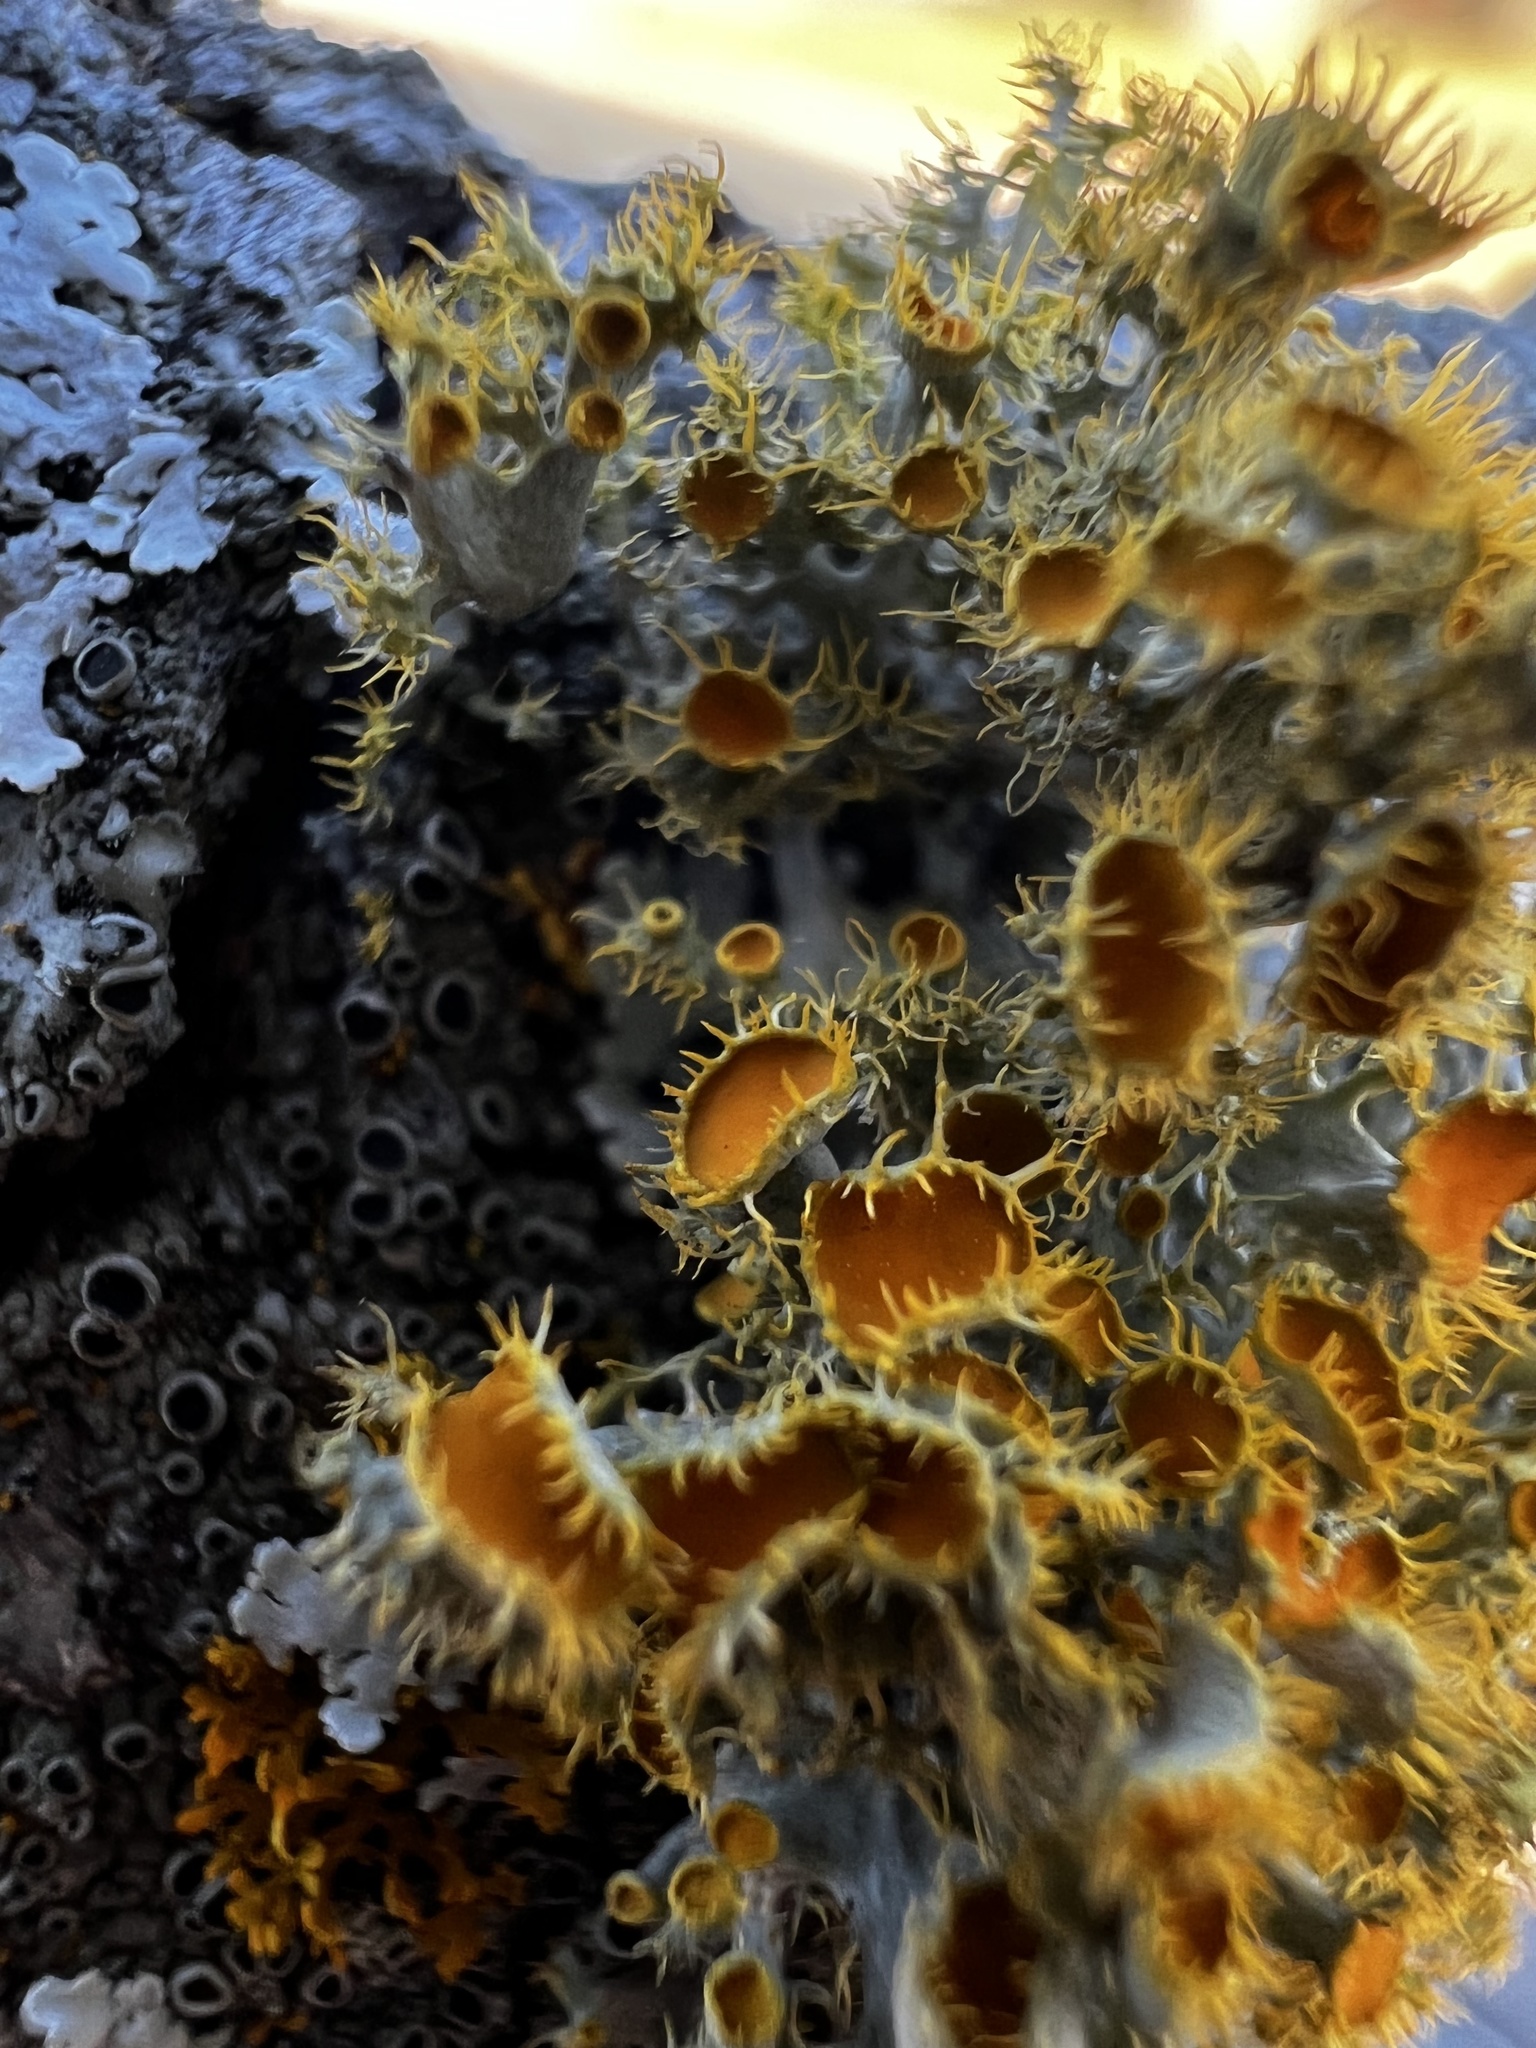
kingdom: Fungi
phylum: Ascomycota
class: Lecanoromycetes
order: Teloschistales
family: Teloschistaceae
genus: Niorma
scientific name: Niorma chrysophthalma
